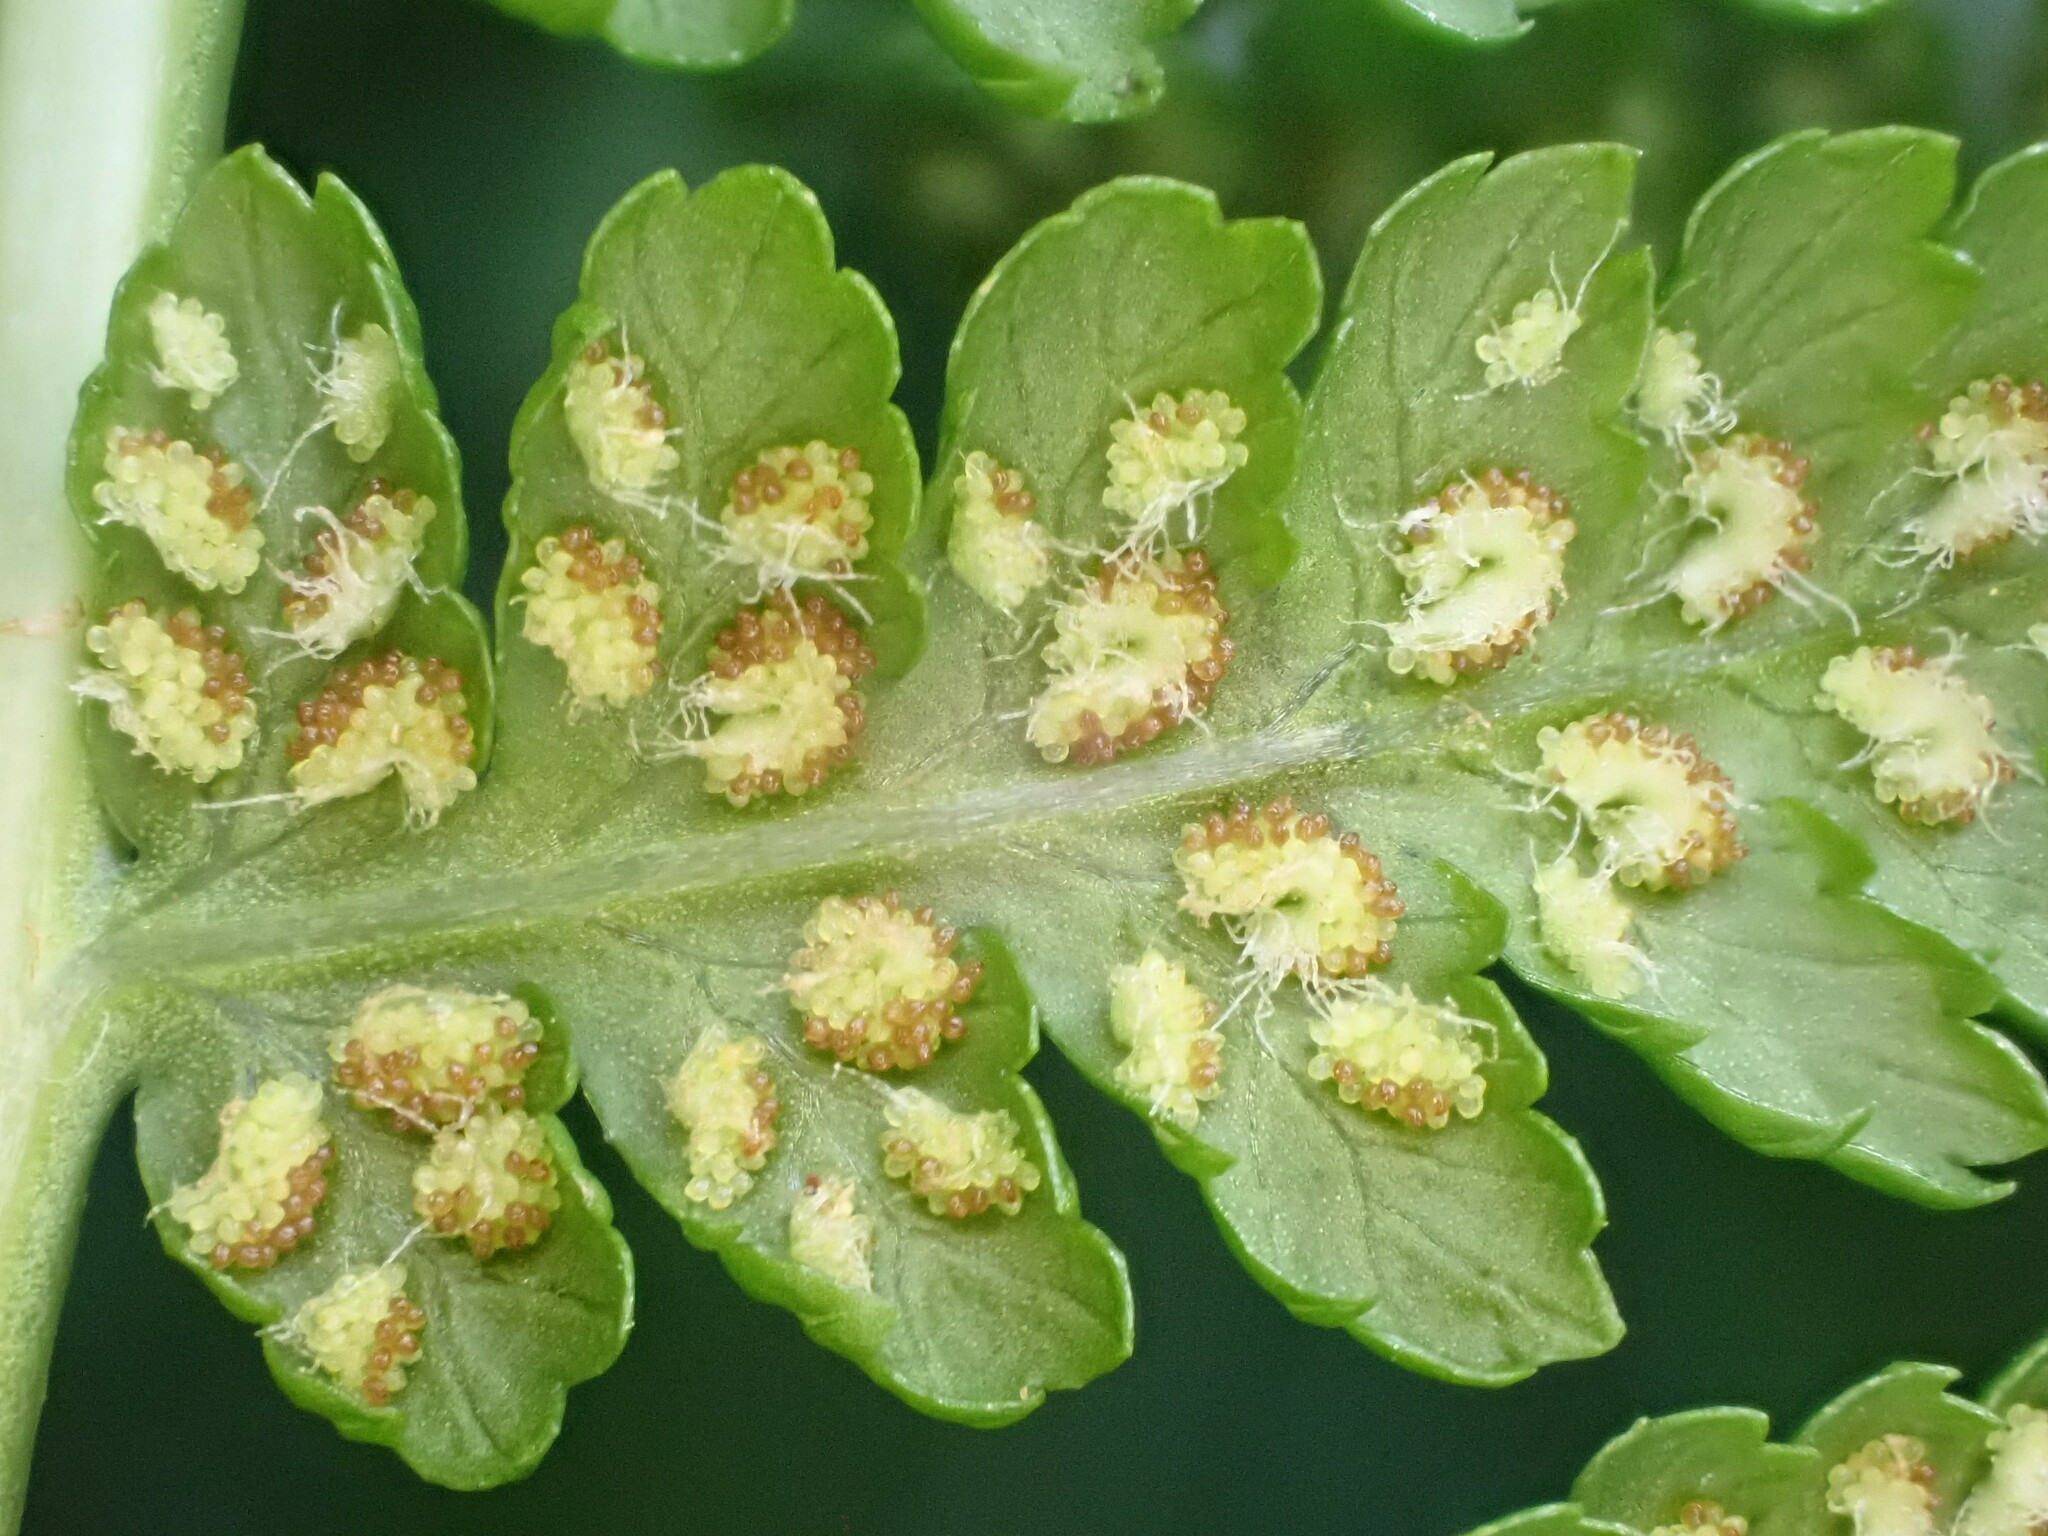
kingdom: Plantae
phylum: Tracheophyta
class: Polypodiopsida
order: Polypodiales
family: Athyriaceae
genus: Athyrium
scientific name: Athyrium filix-femina
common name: Lady fern
